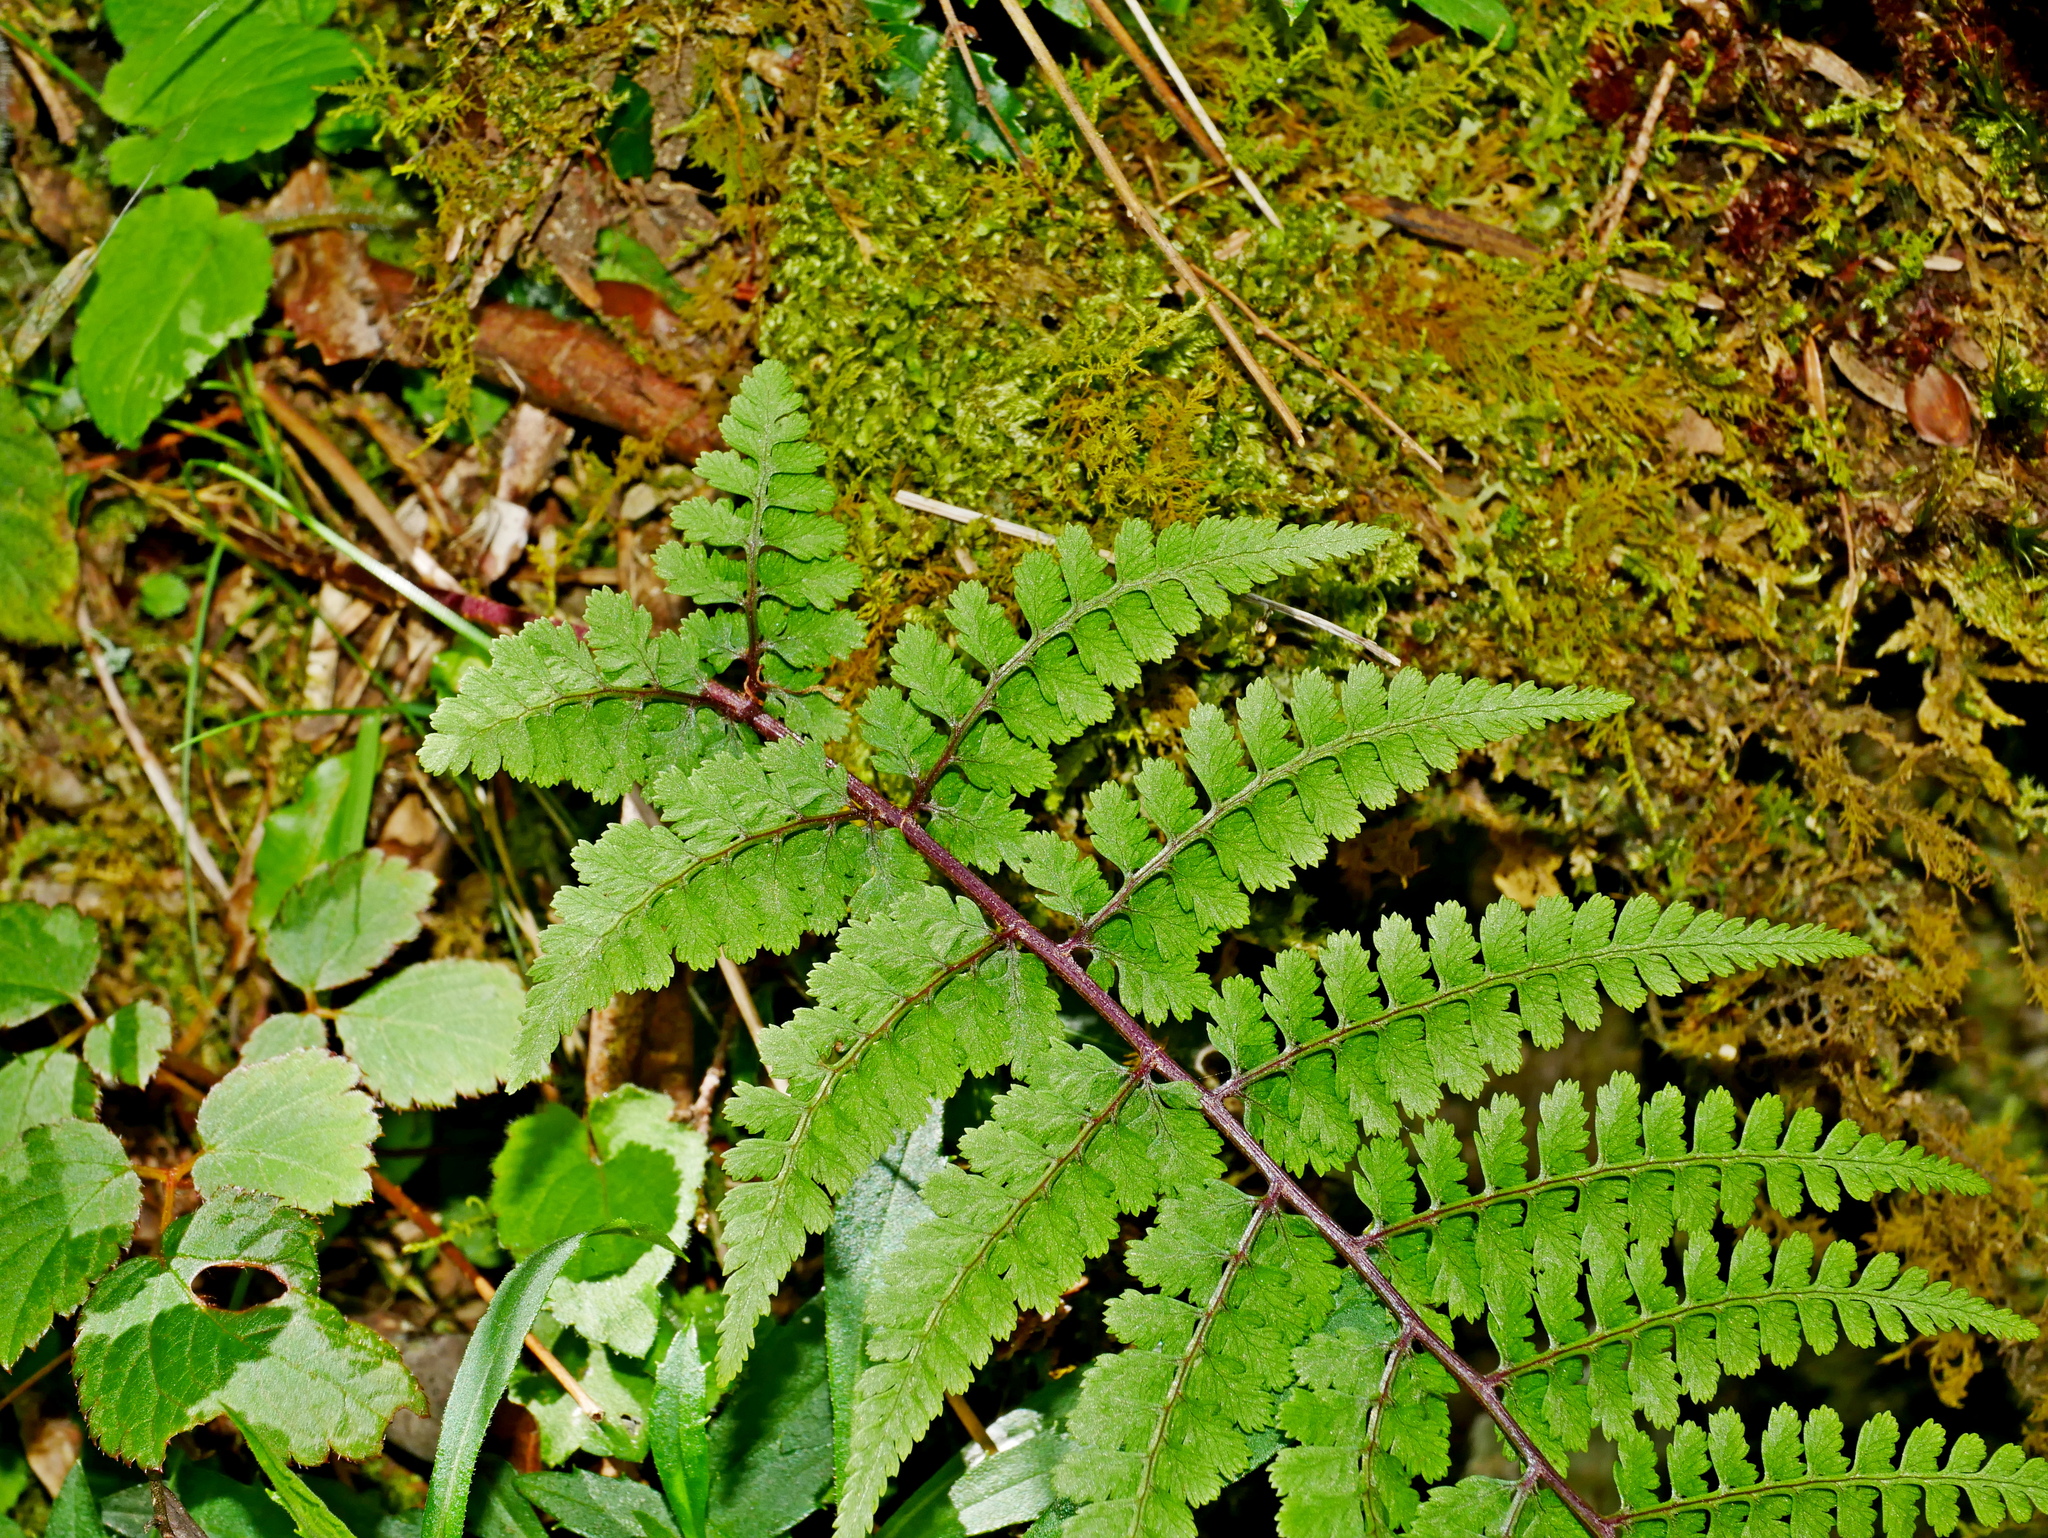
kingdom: Plantae
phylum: Tracheophyta
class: Polypodiopsida
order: Polypodiales
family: Athyriaceae
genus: Athyrium
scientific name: Athyrium tripinnatum
